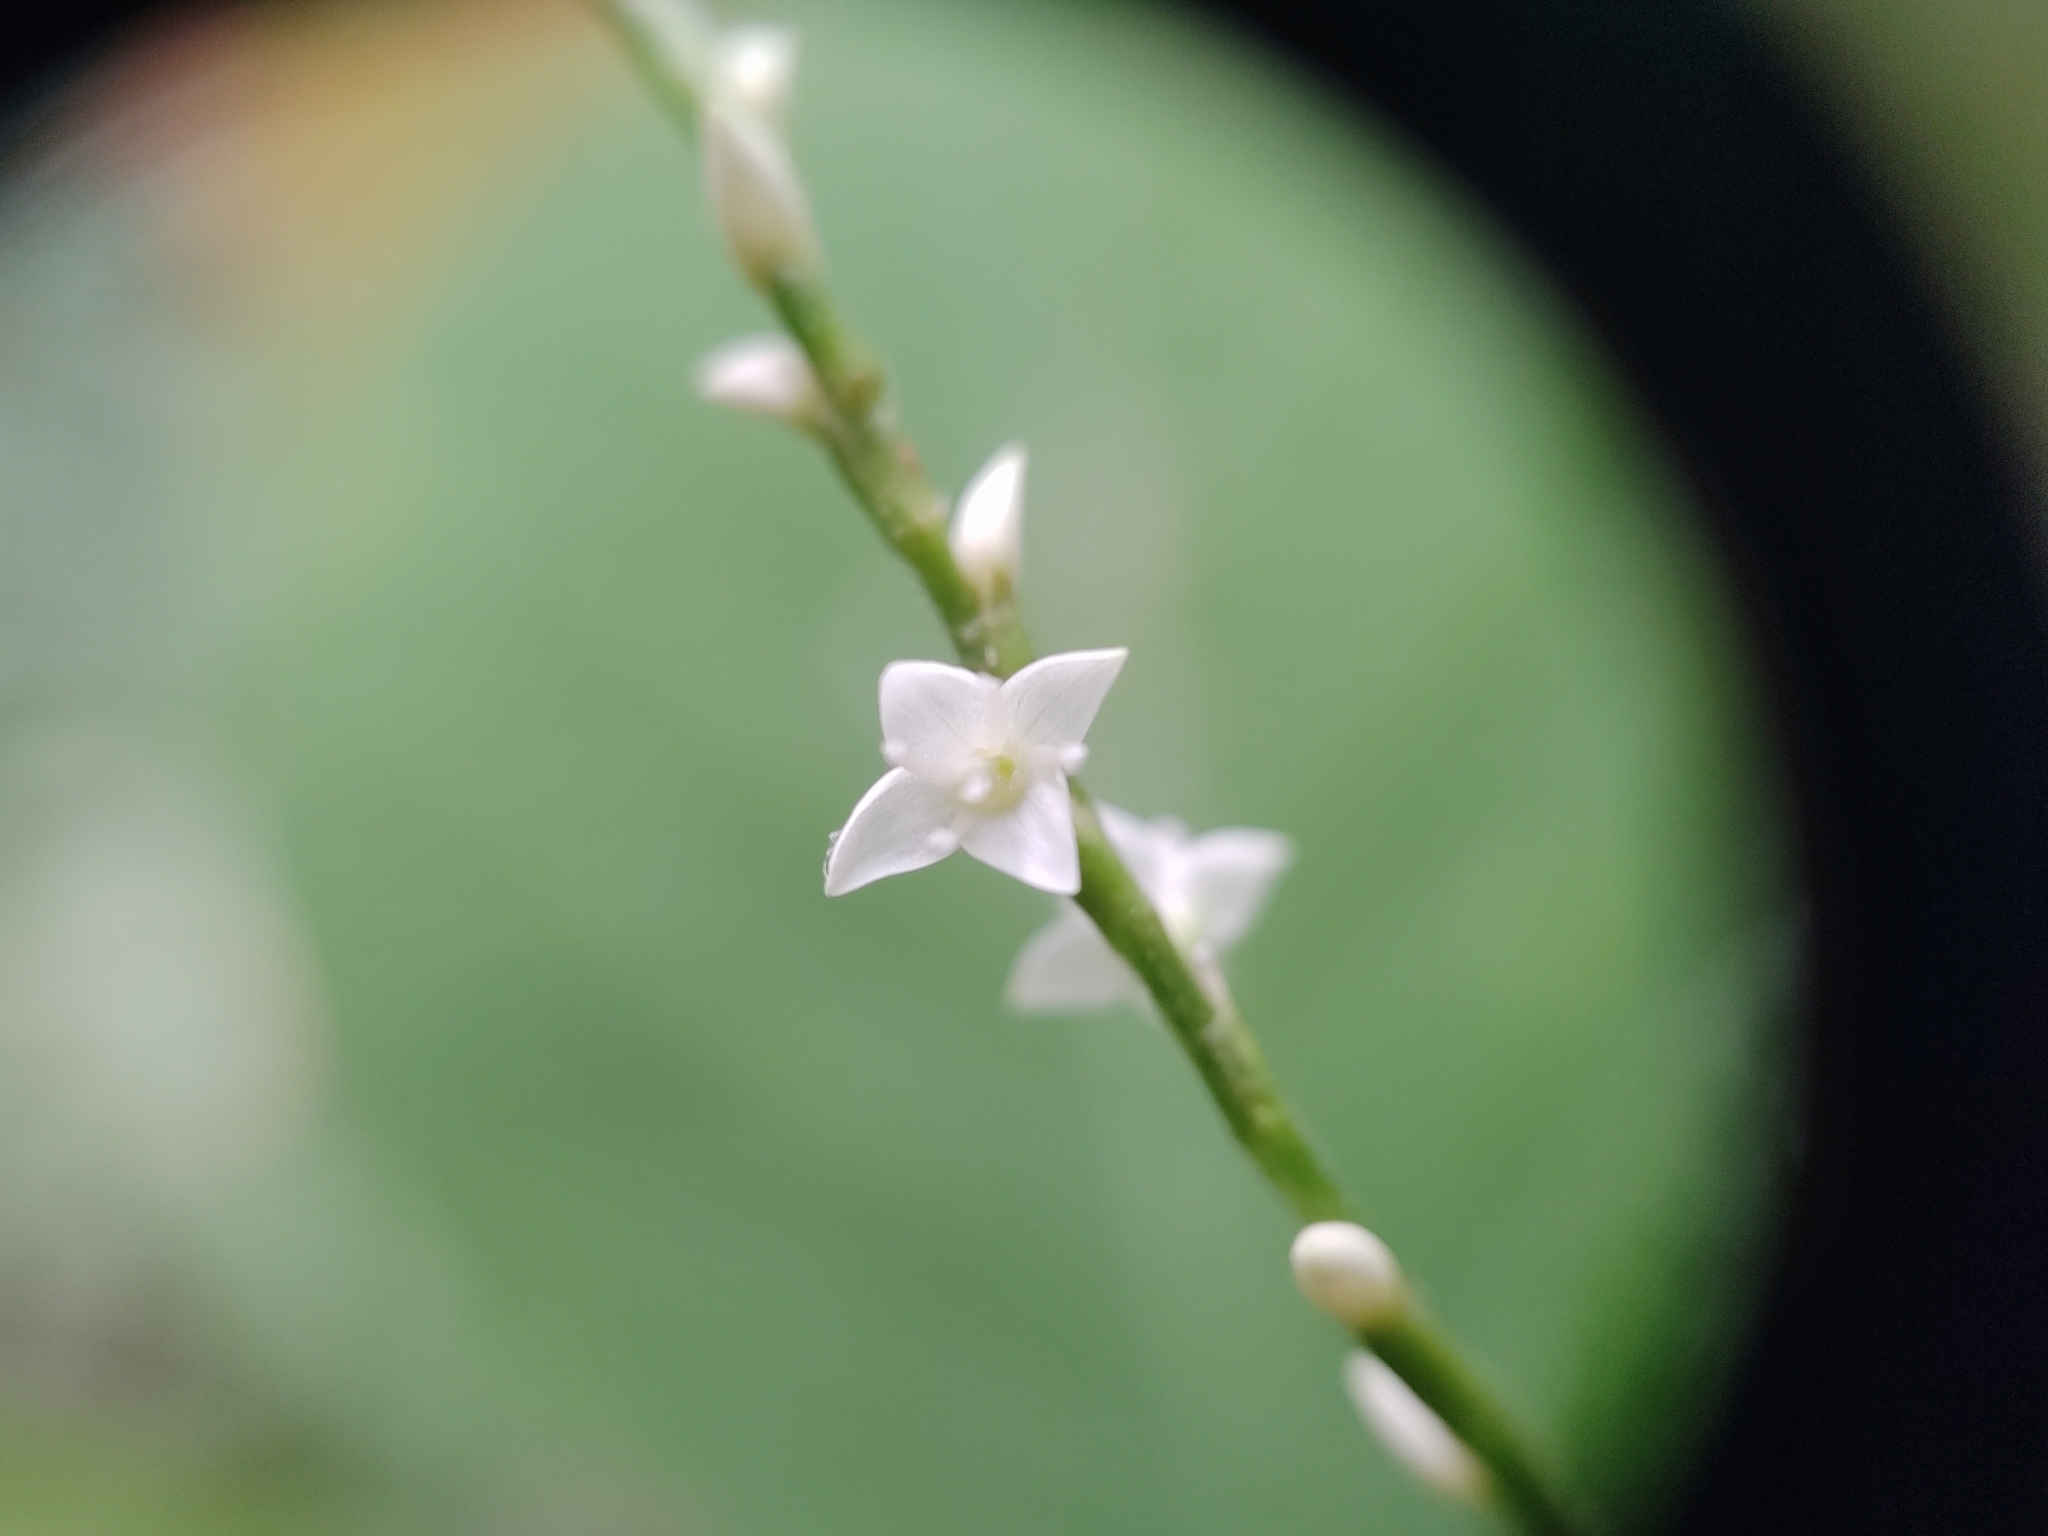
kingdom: Plantae
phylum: Tracheophyta
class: Magnoliopsida
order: Caryophyllales
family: Polygonaceae
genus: Persicaria
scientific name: Persicaria virginiana
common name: Jumpseed
